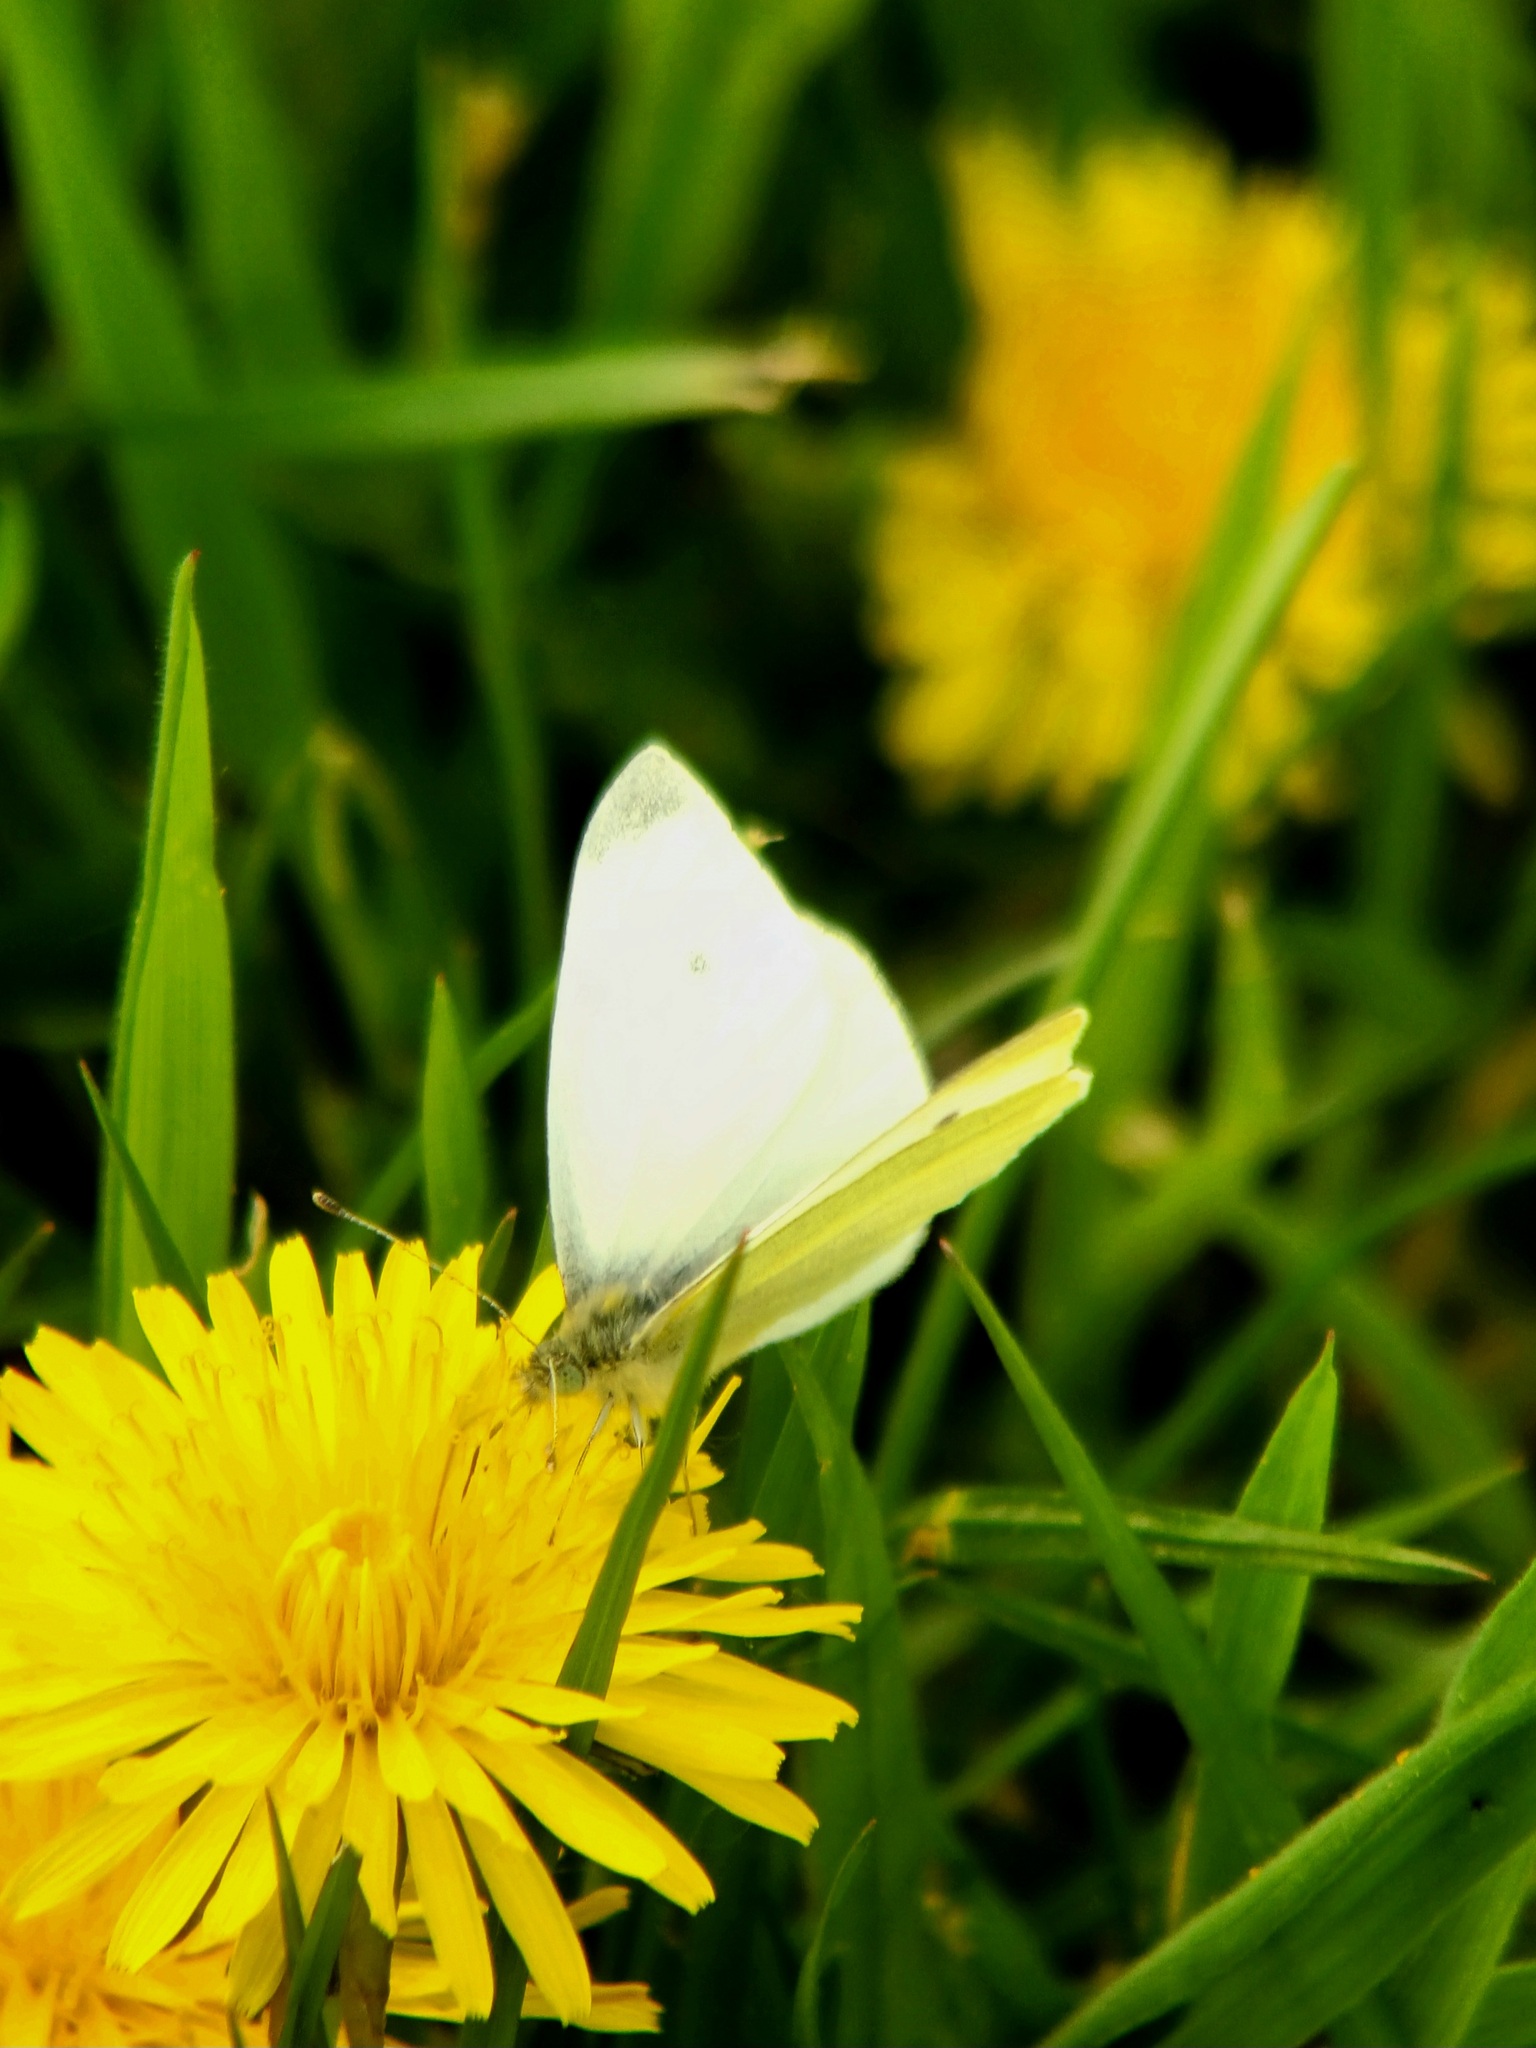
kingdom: Animalia
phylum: Arthropoda
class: Insecta
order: Lepidoptera
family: Pieridae
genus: Pieris
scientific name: Pieris rapae
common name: Small white
